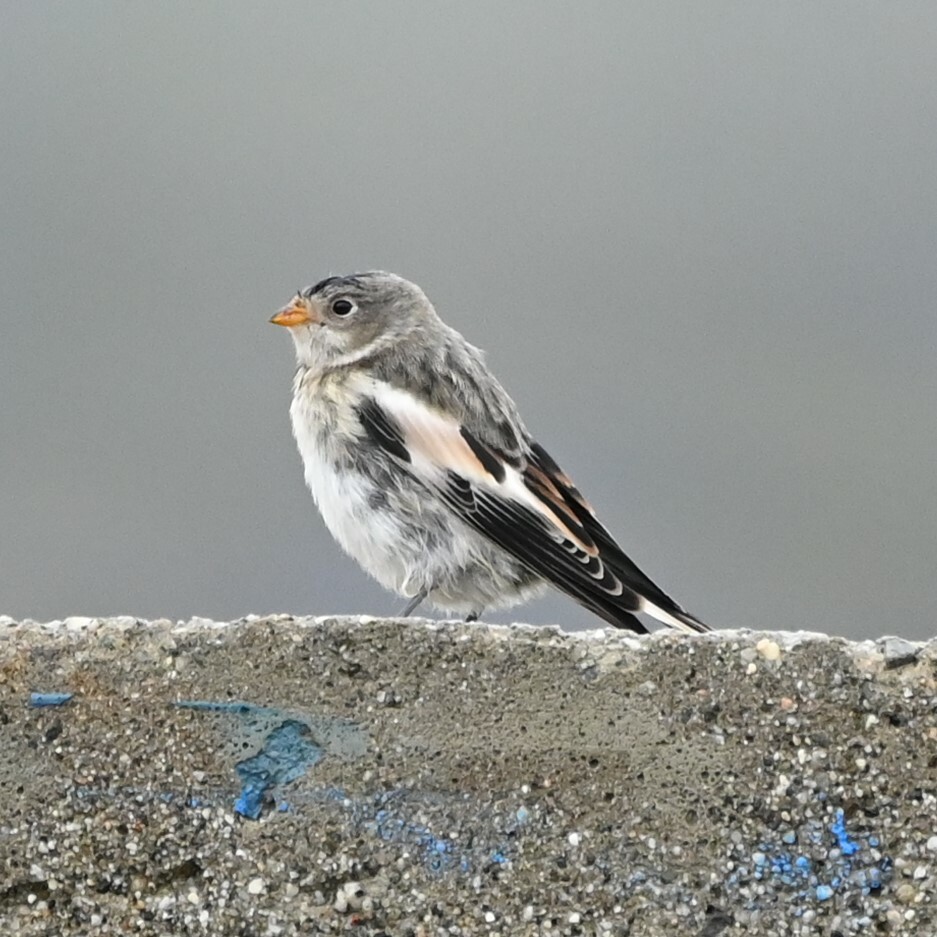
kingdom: Animalia
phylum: Chordata
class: Aves
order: Passeriformes
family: Calcariidae
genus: Plectrophenax
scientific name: Plectrophenax nivalis
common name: Snow bunting
